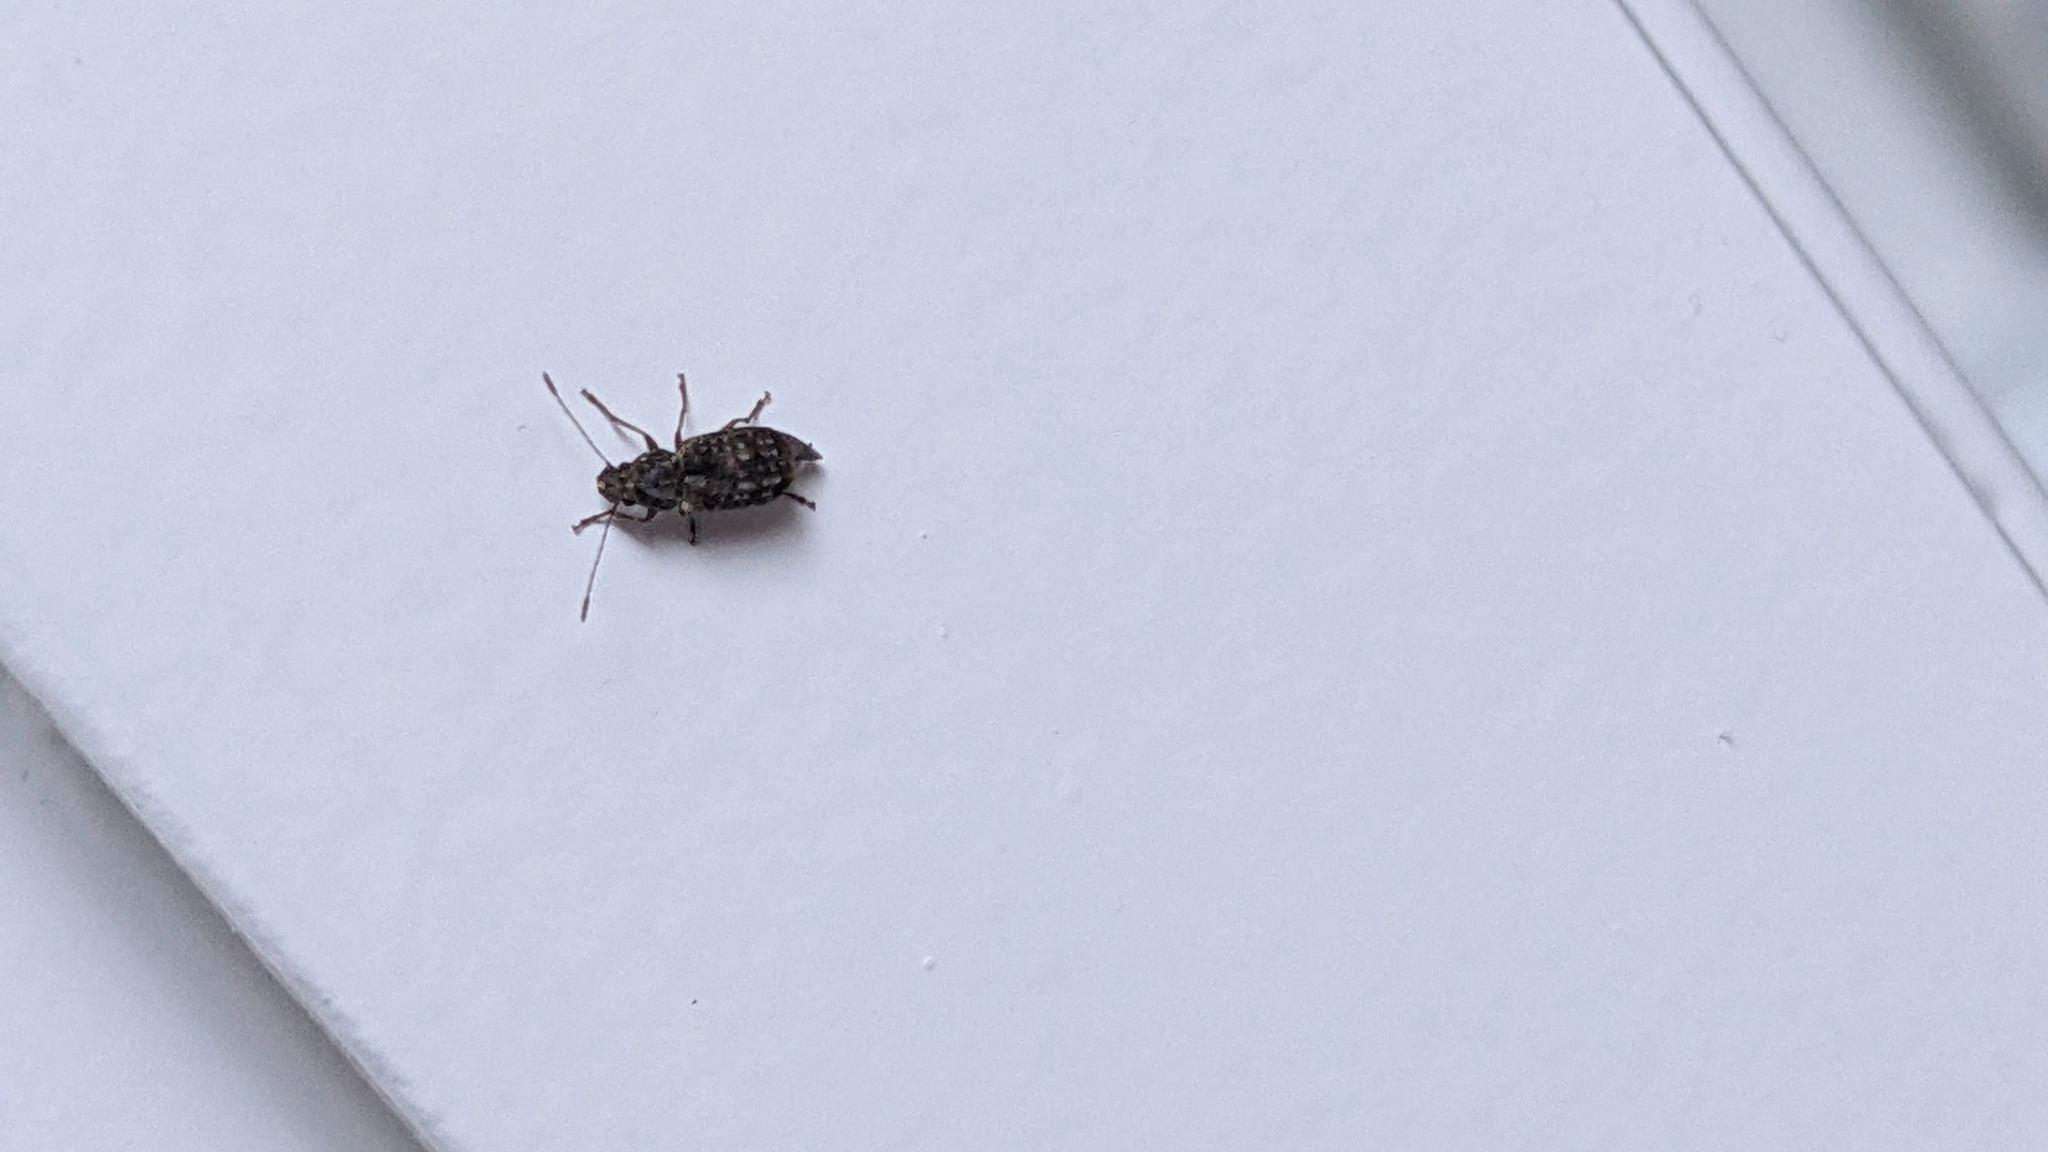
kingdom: Animalia
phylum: Arthropoda
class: Insecta
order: Coleoptera
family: Anthribidae
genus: Phymatus
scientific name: Phymatus
